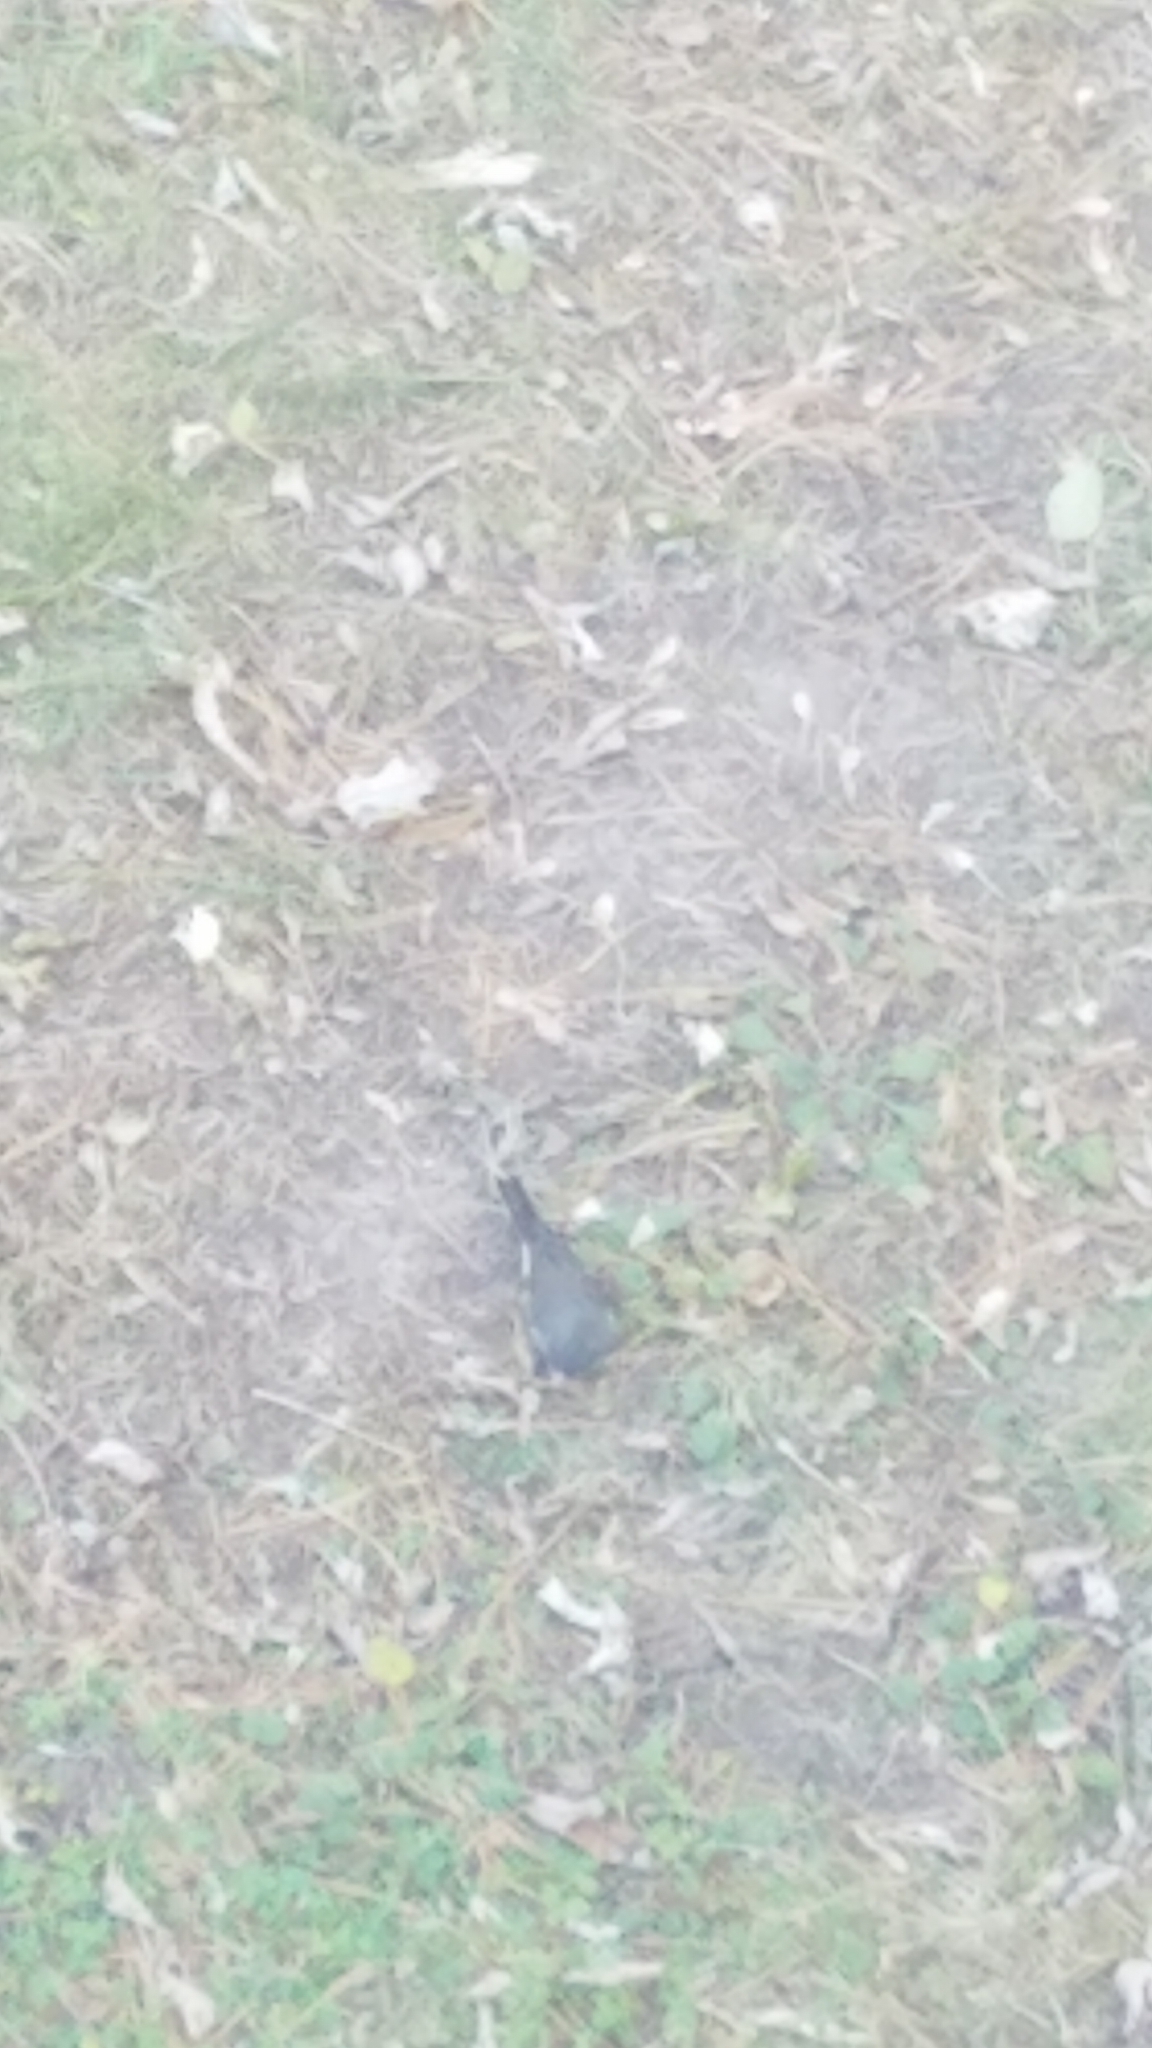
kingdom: Animalia
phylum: Chordata
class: Aves
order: Passeriformes
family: Passerellidae
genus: Junco
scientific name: Junco hyemalis
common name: Dark-eyed junco
